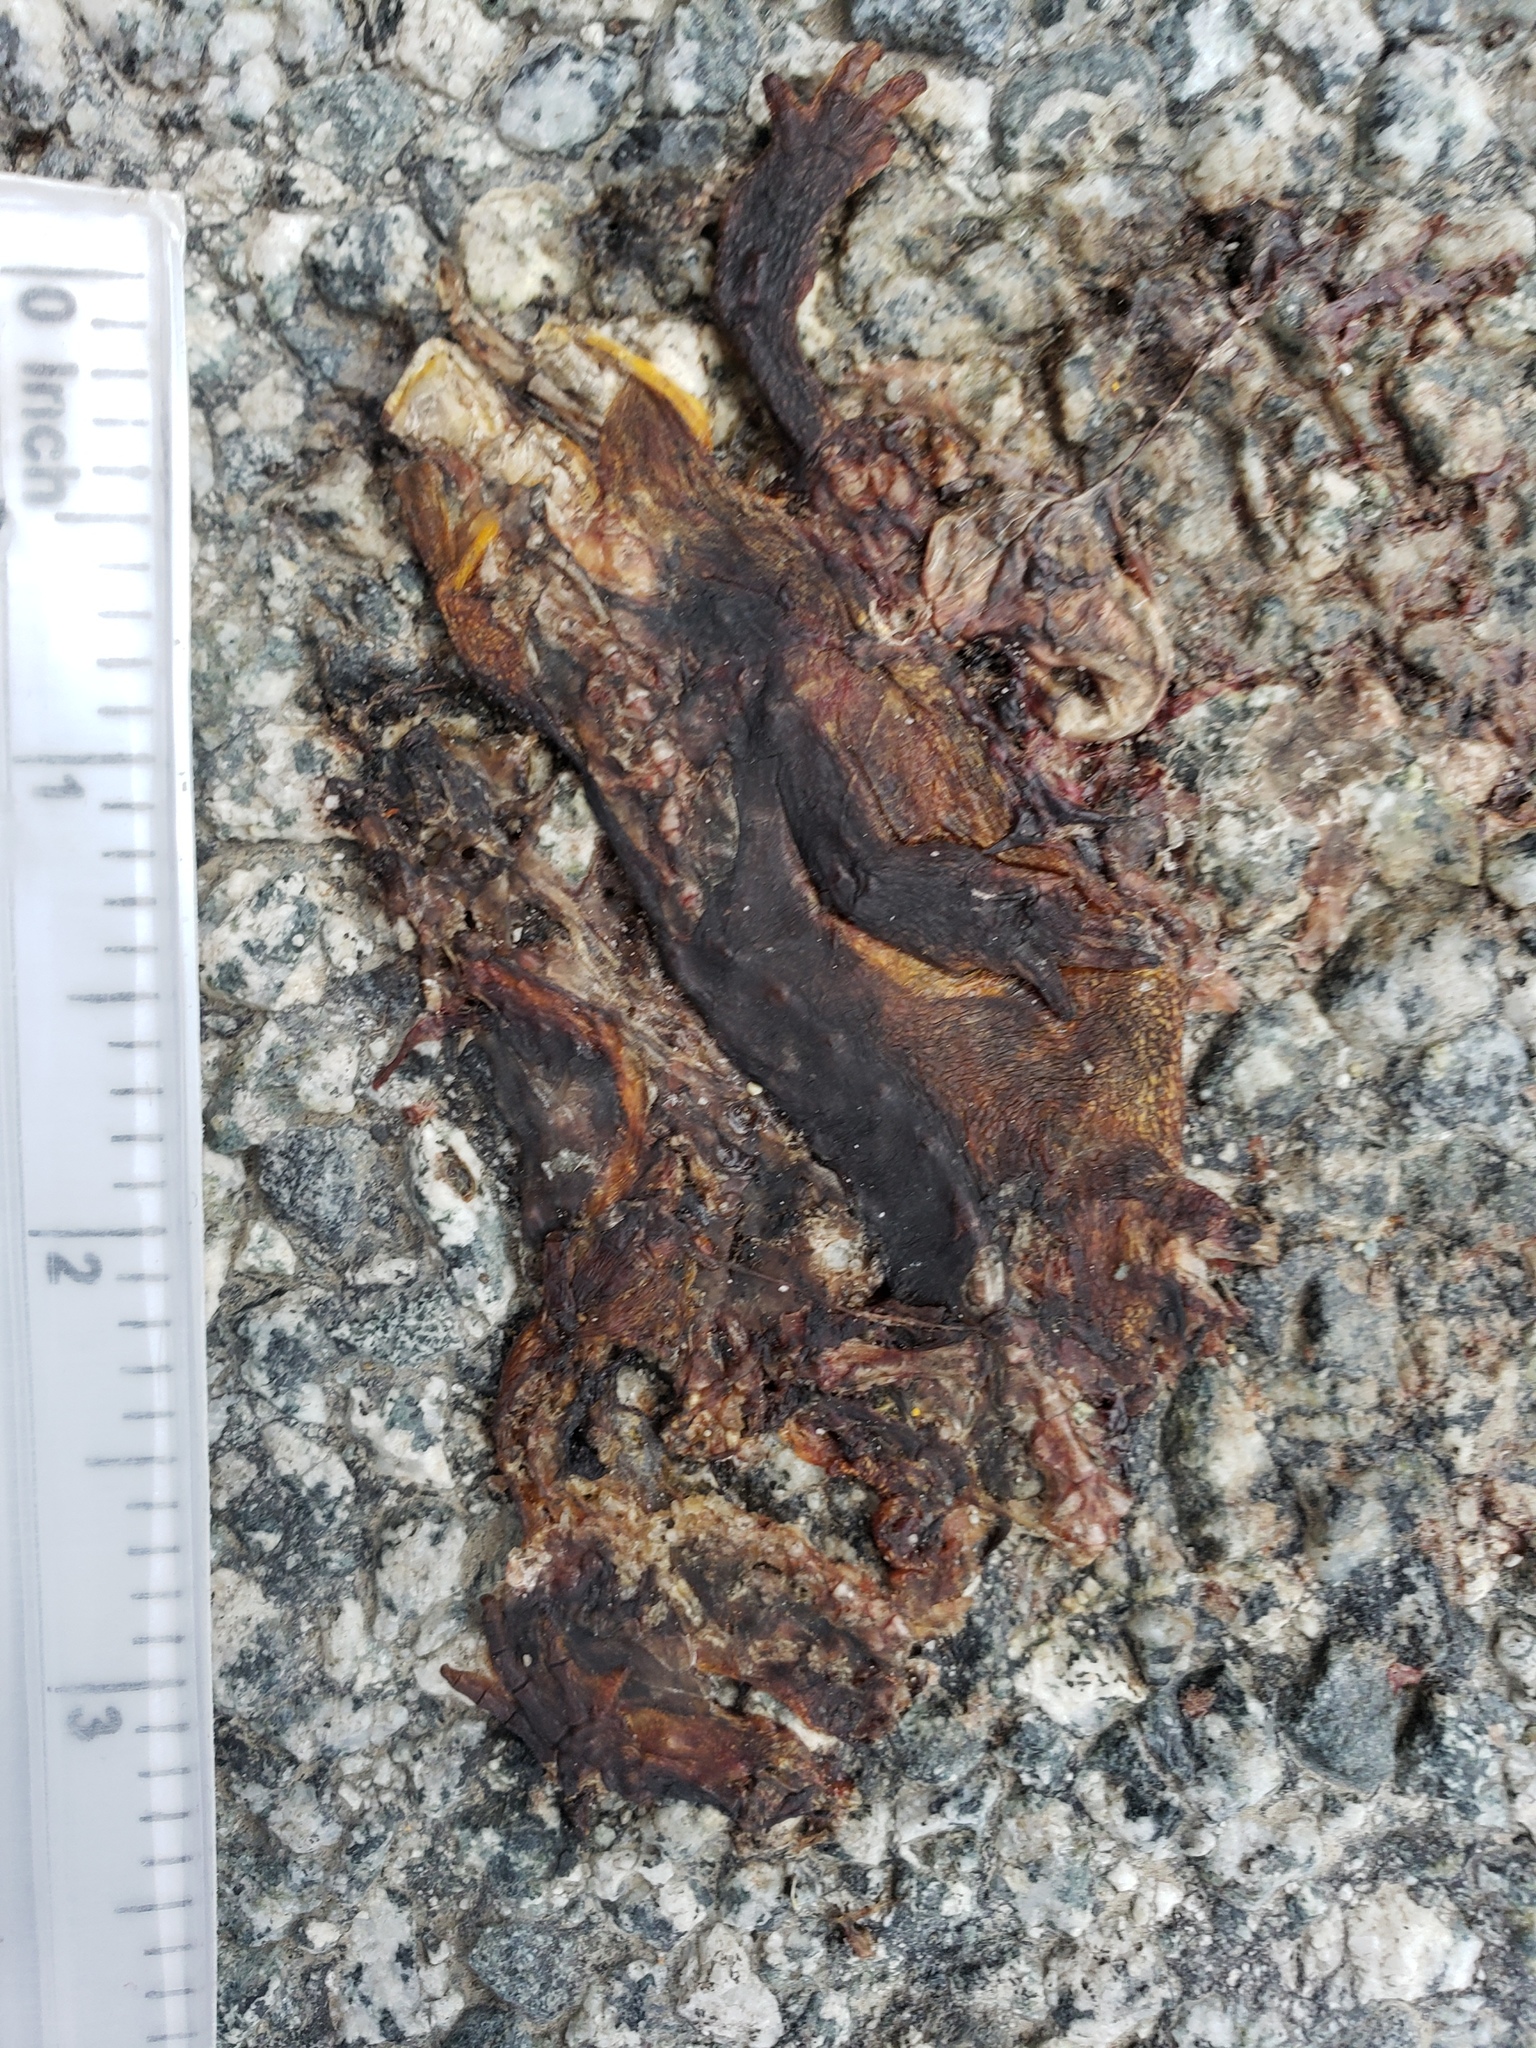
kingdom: Animalia
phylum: Chordata
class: Amphibia
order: Caudata
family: Salamandridae
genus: Taricha
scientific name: Taricha
